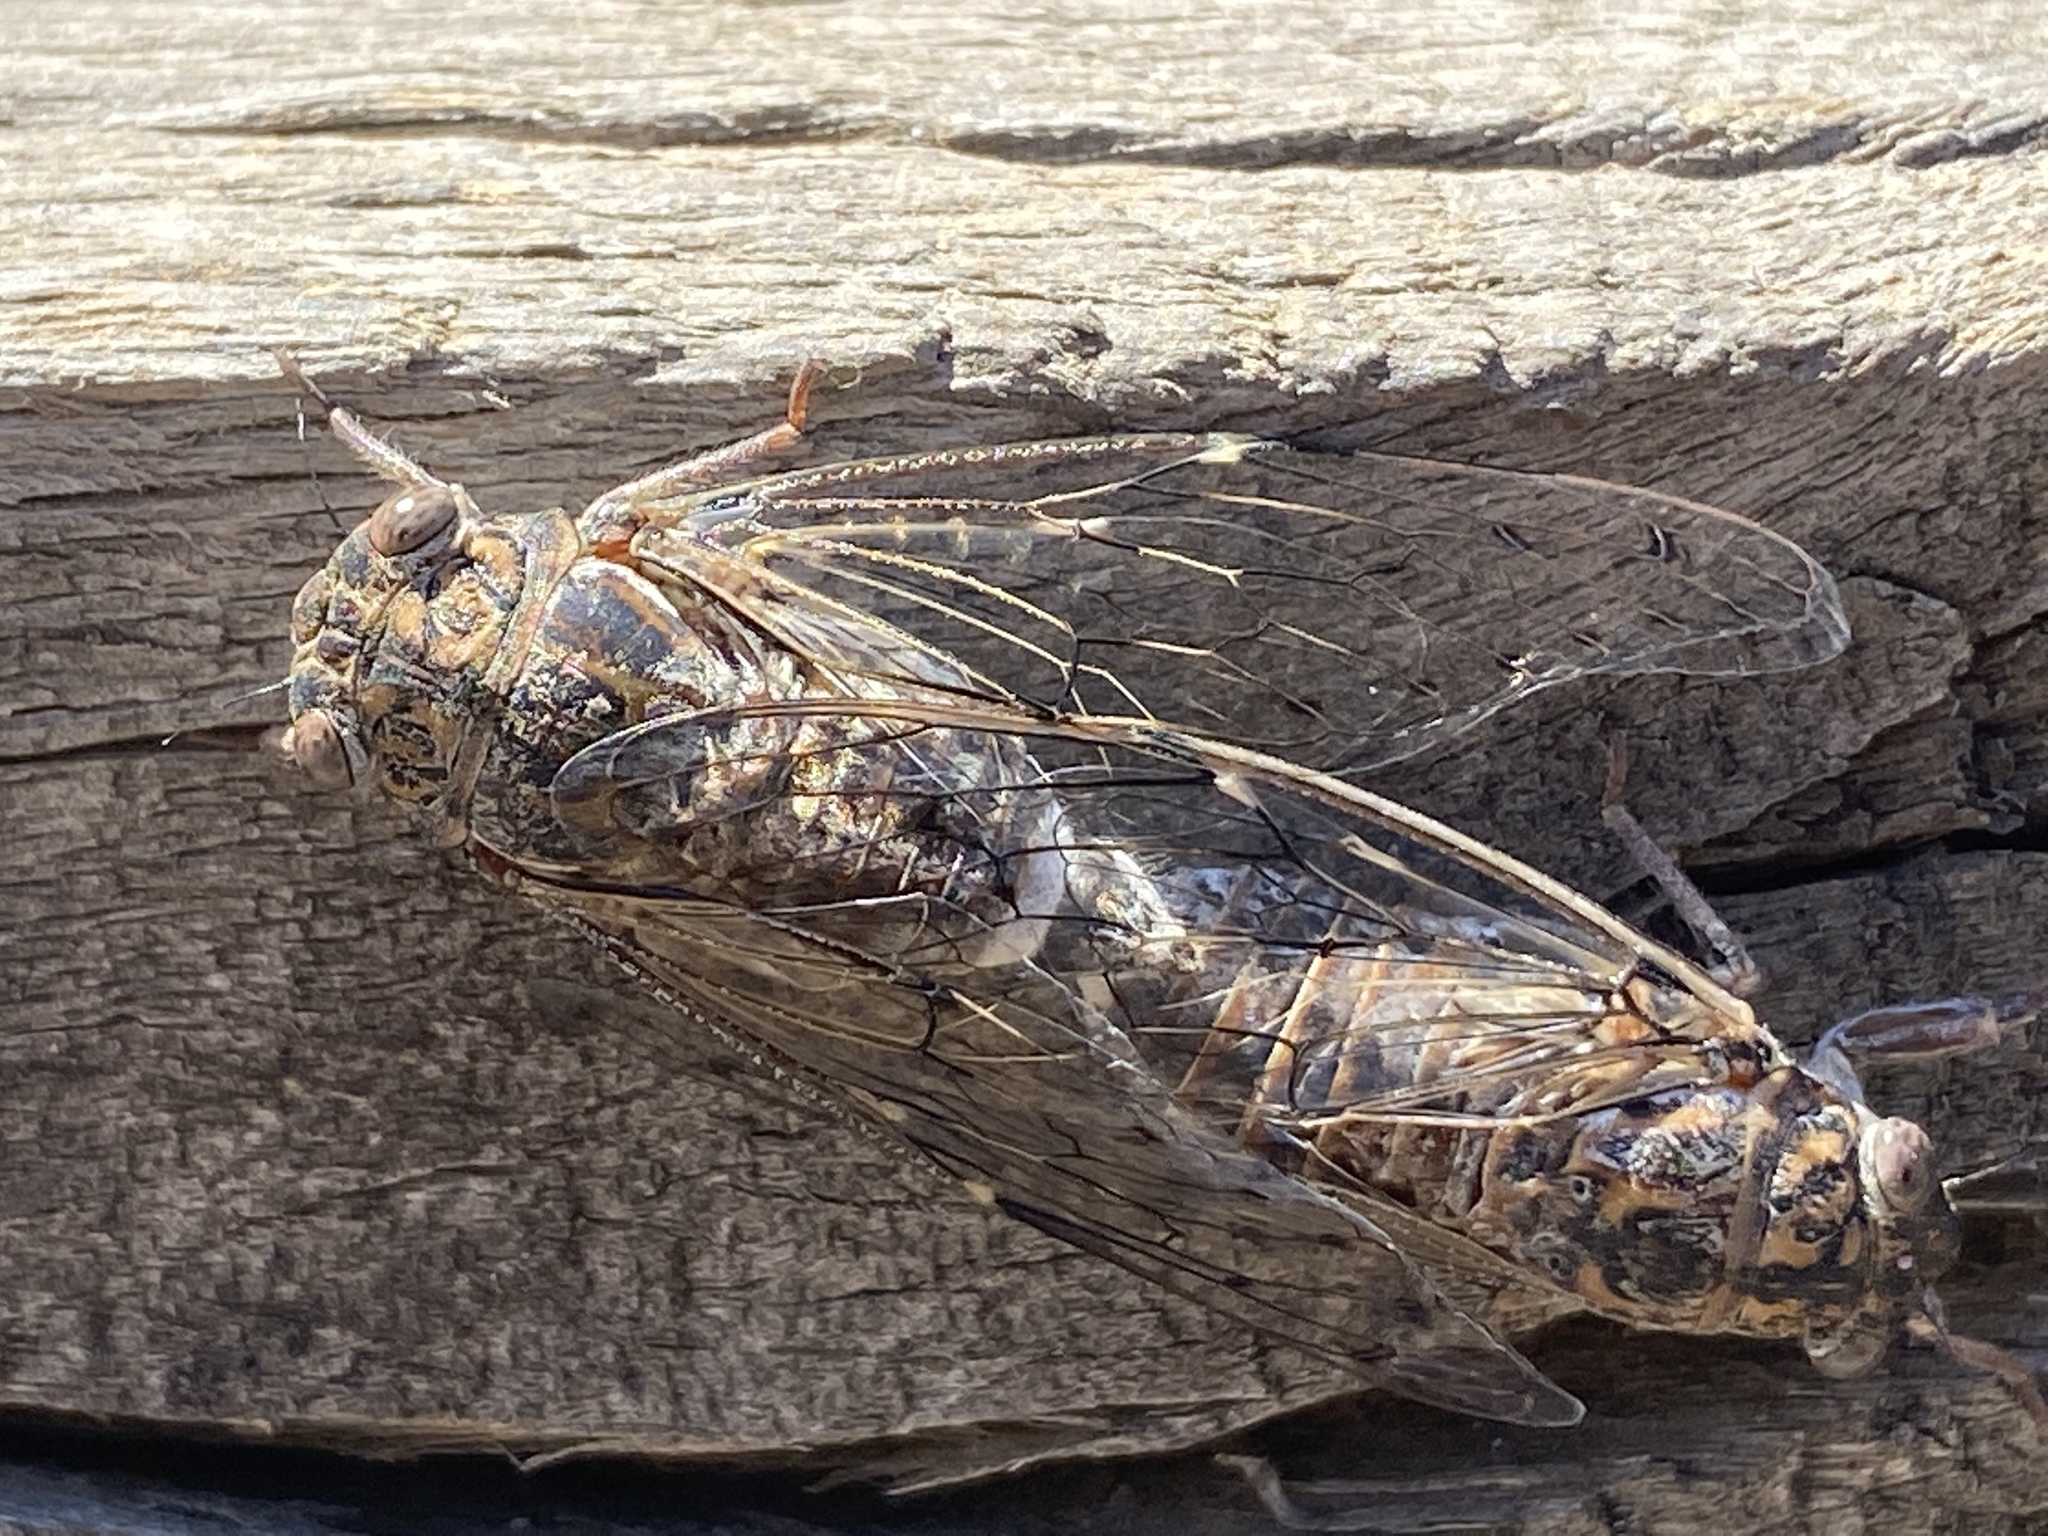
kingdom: Animalia
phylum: Arthropoda
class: Insecta
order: Hemiptera
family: Cicadidae
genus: Cicada
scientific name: Cicada orni
